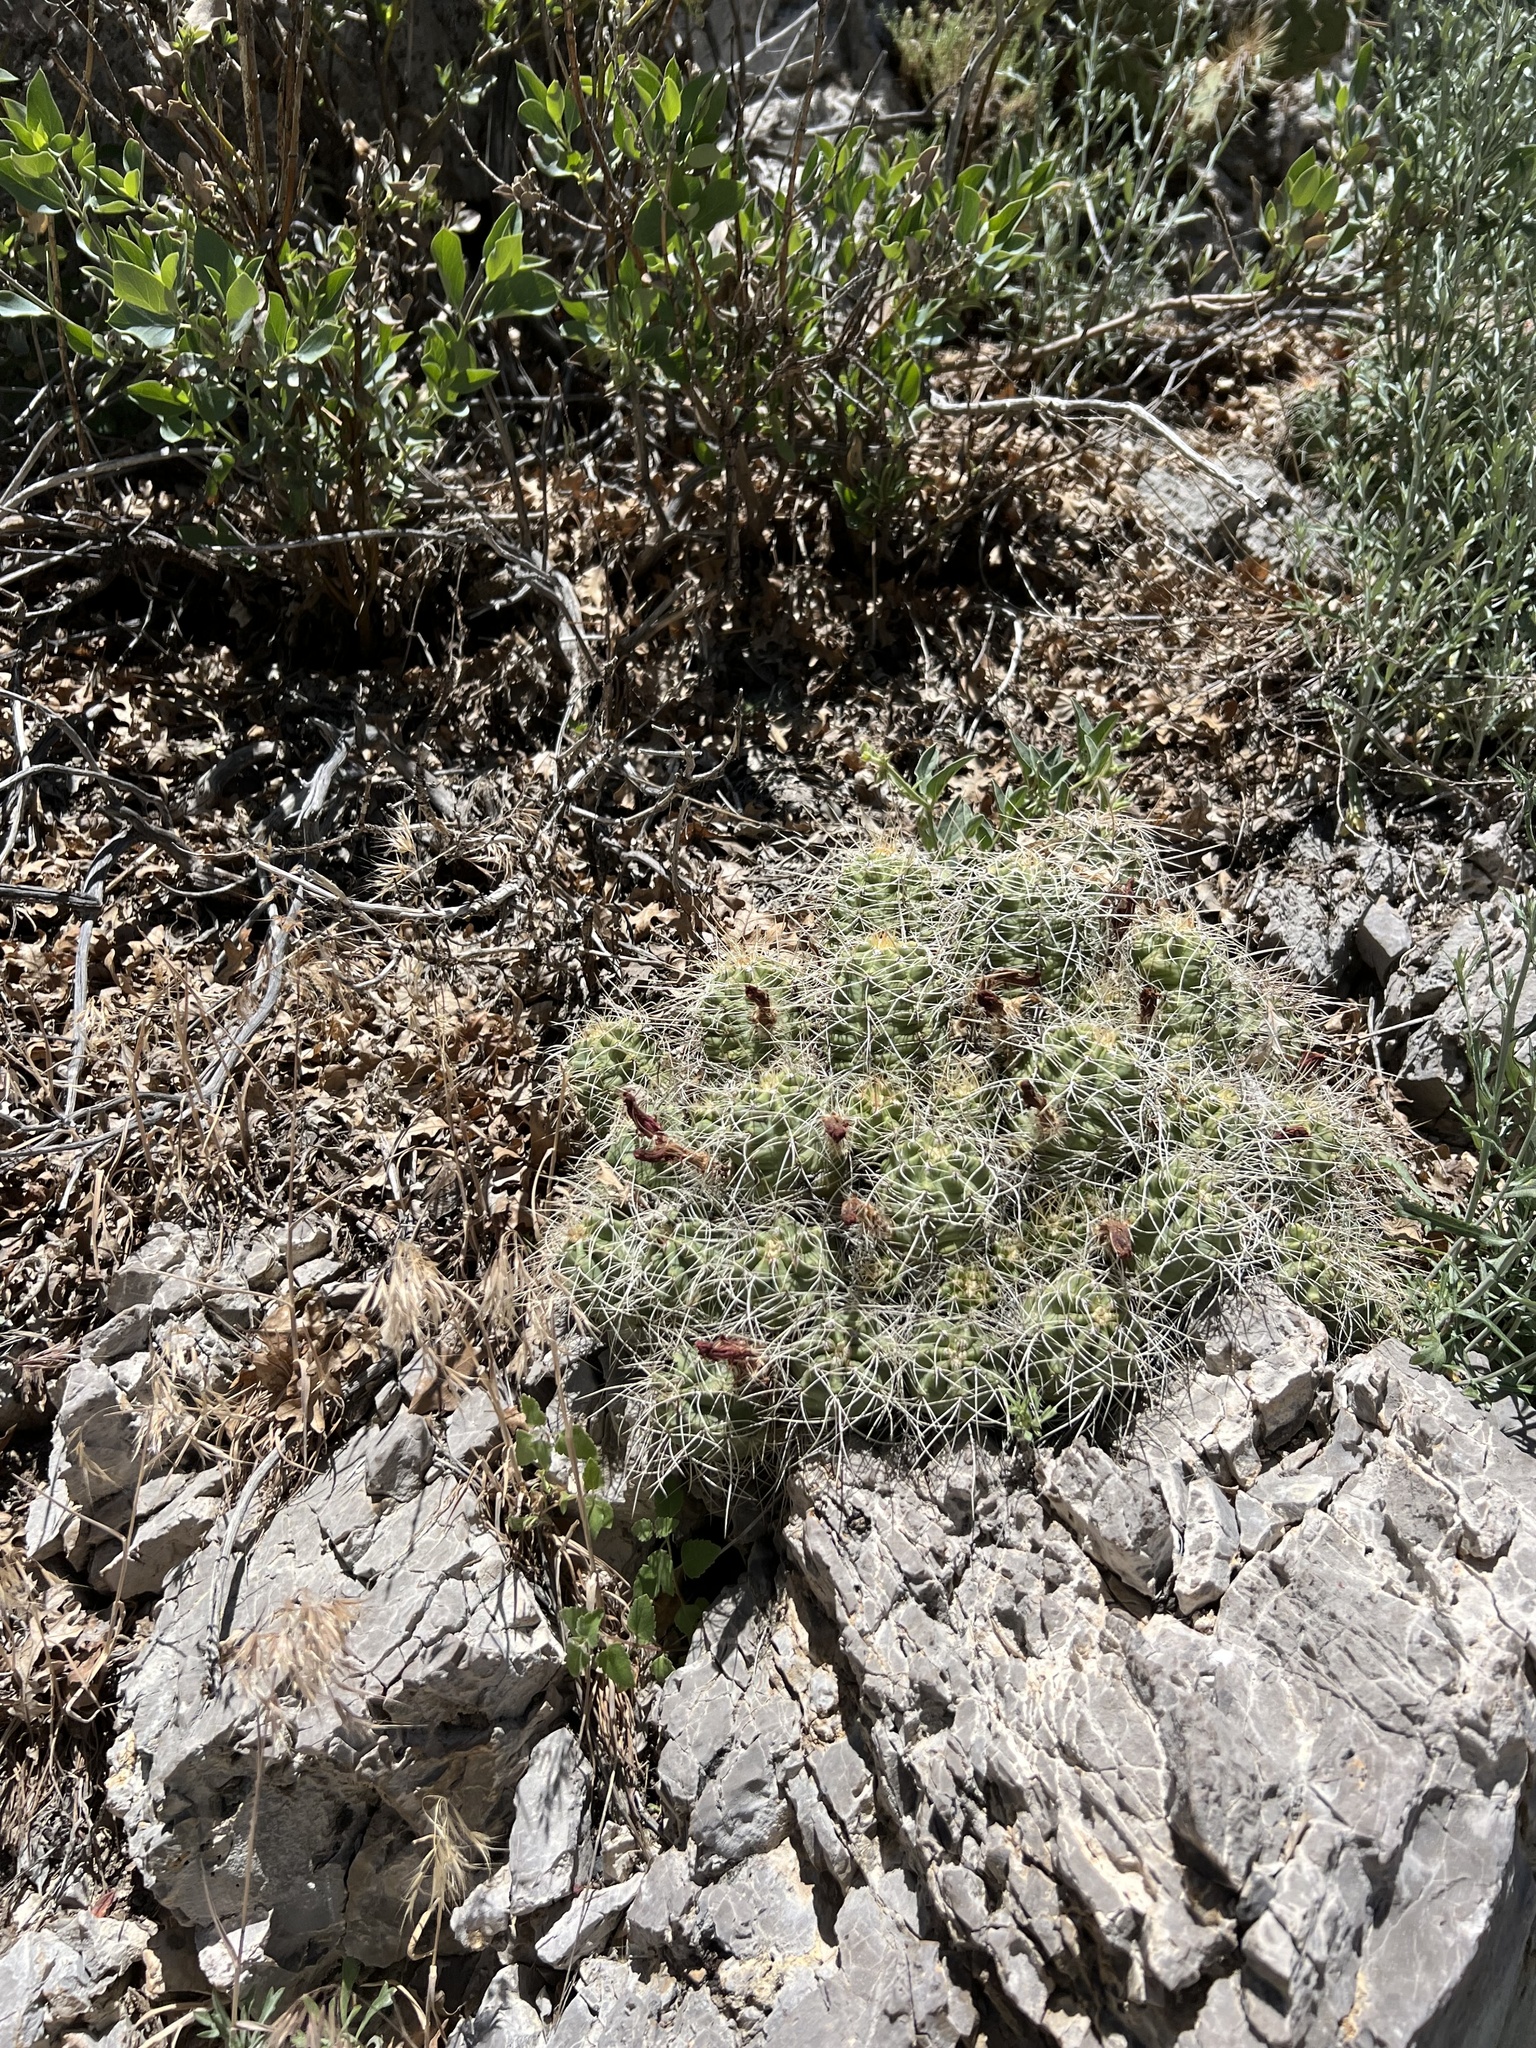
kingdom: Plantae
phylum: Tracheophyta
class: Magnoliopsida
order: Caryophyllales
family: Cactaceae
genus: Echinocereus
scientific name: Echinocereus triglochidiatus
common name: Claretcup hedgehog
